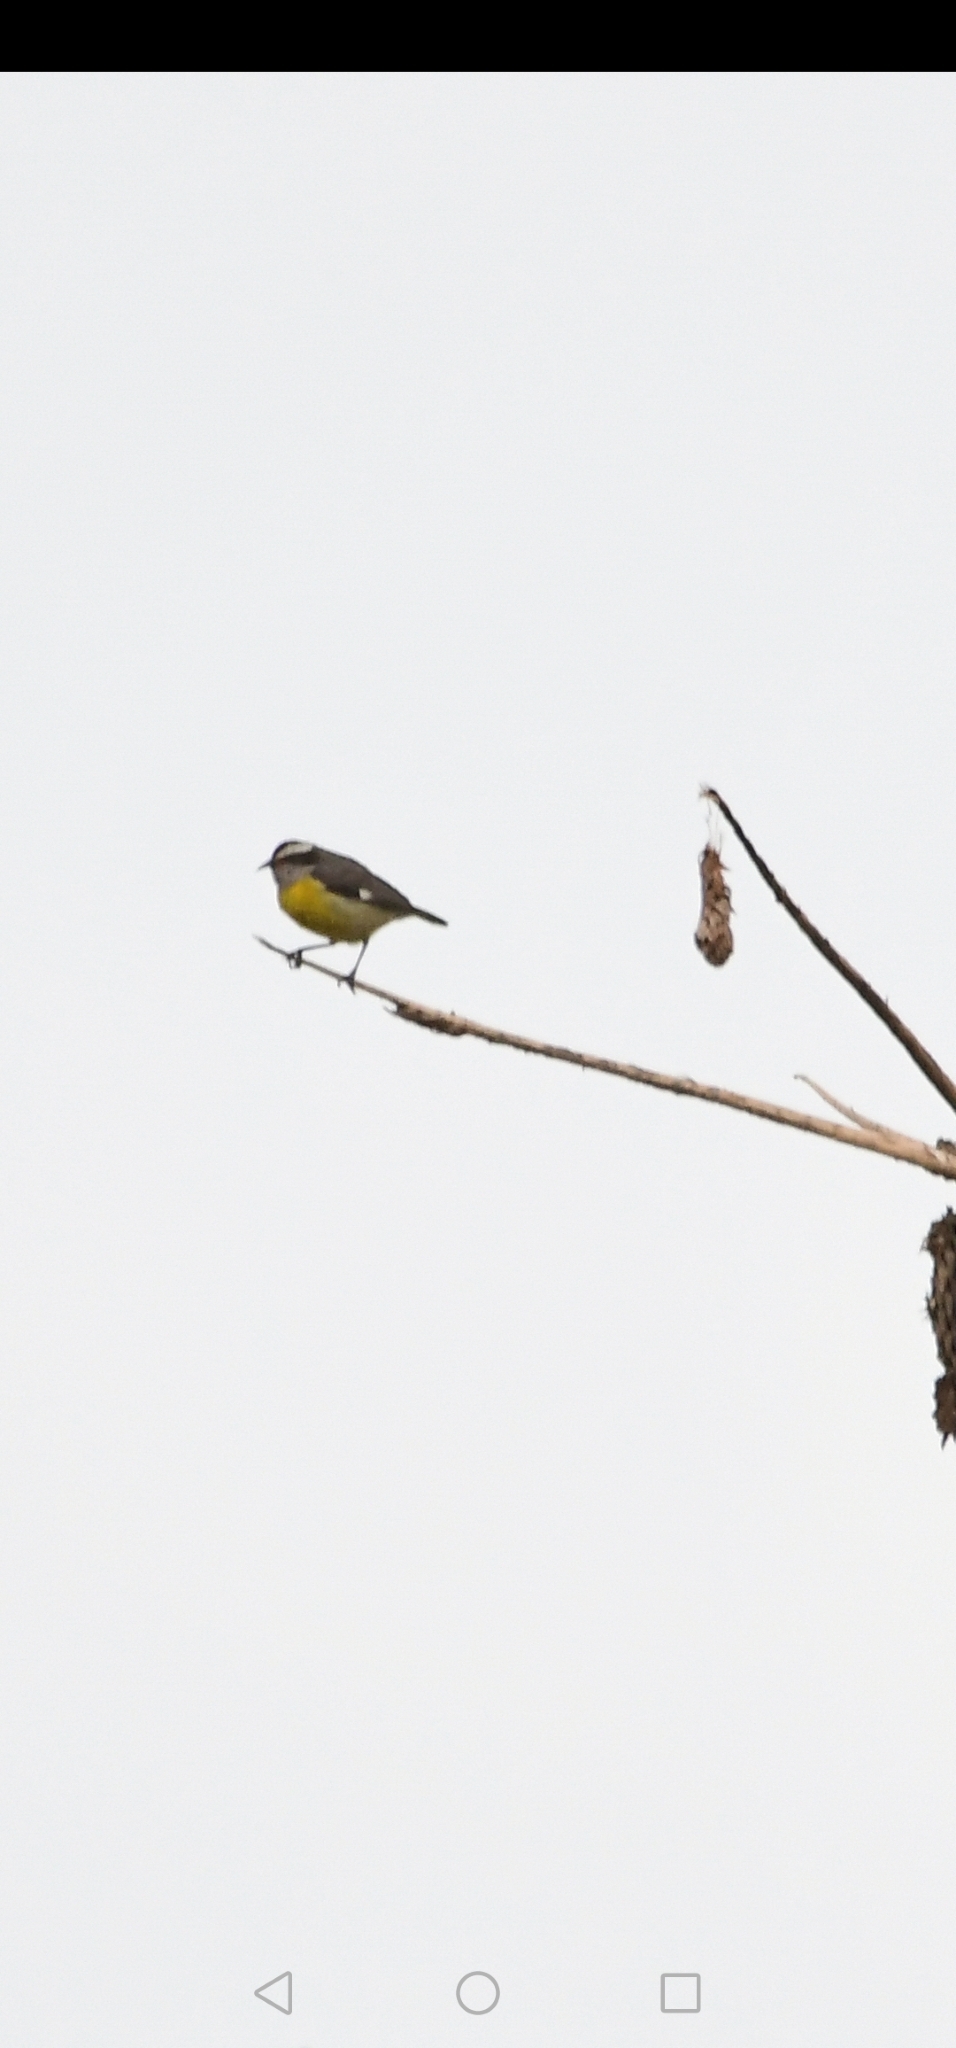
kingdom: Animalia
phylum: Chordata
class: Aves
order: Passeriformes
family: Thraupidae
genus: Coereba
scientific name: Coereba flaveola
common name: Bananaquit
